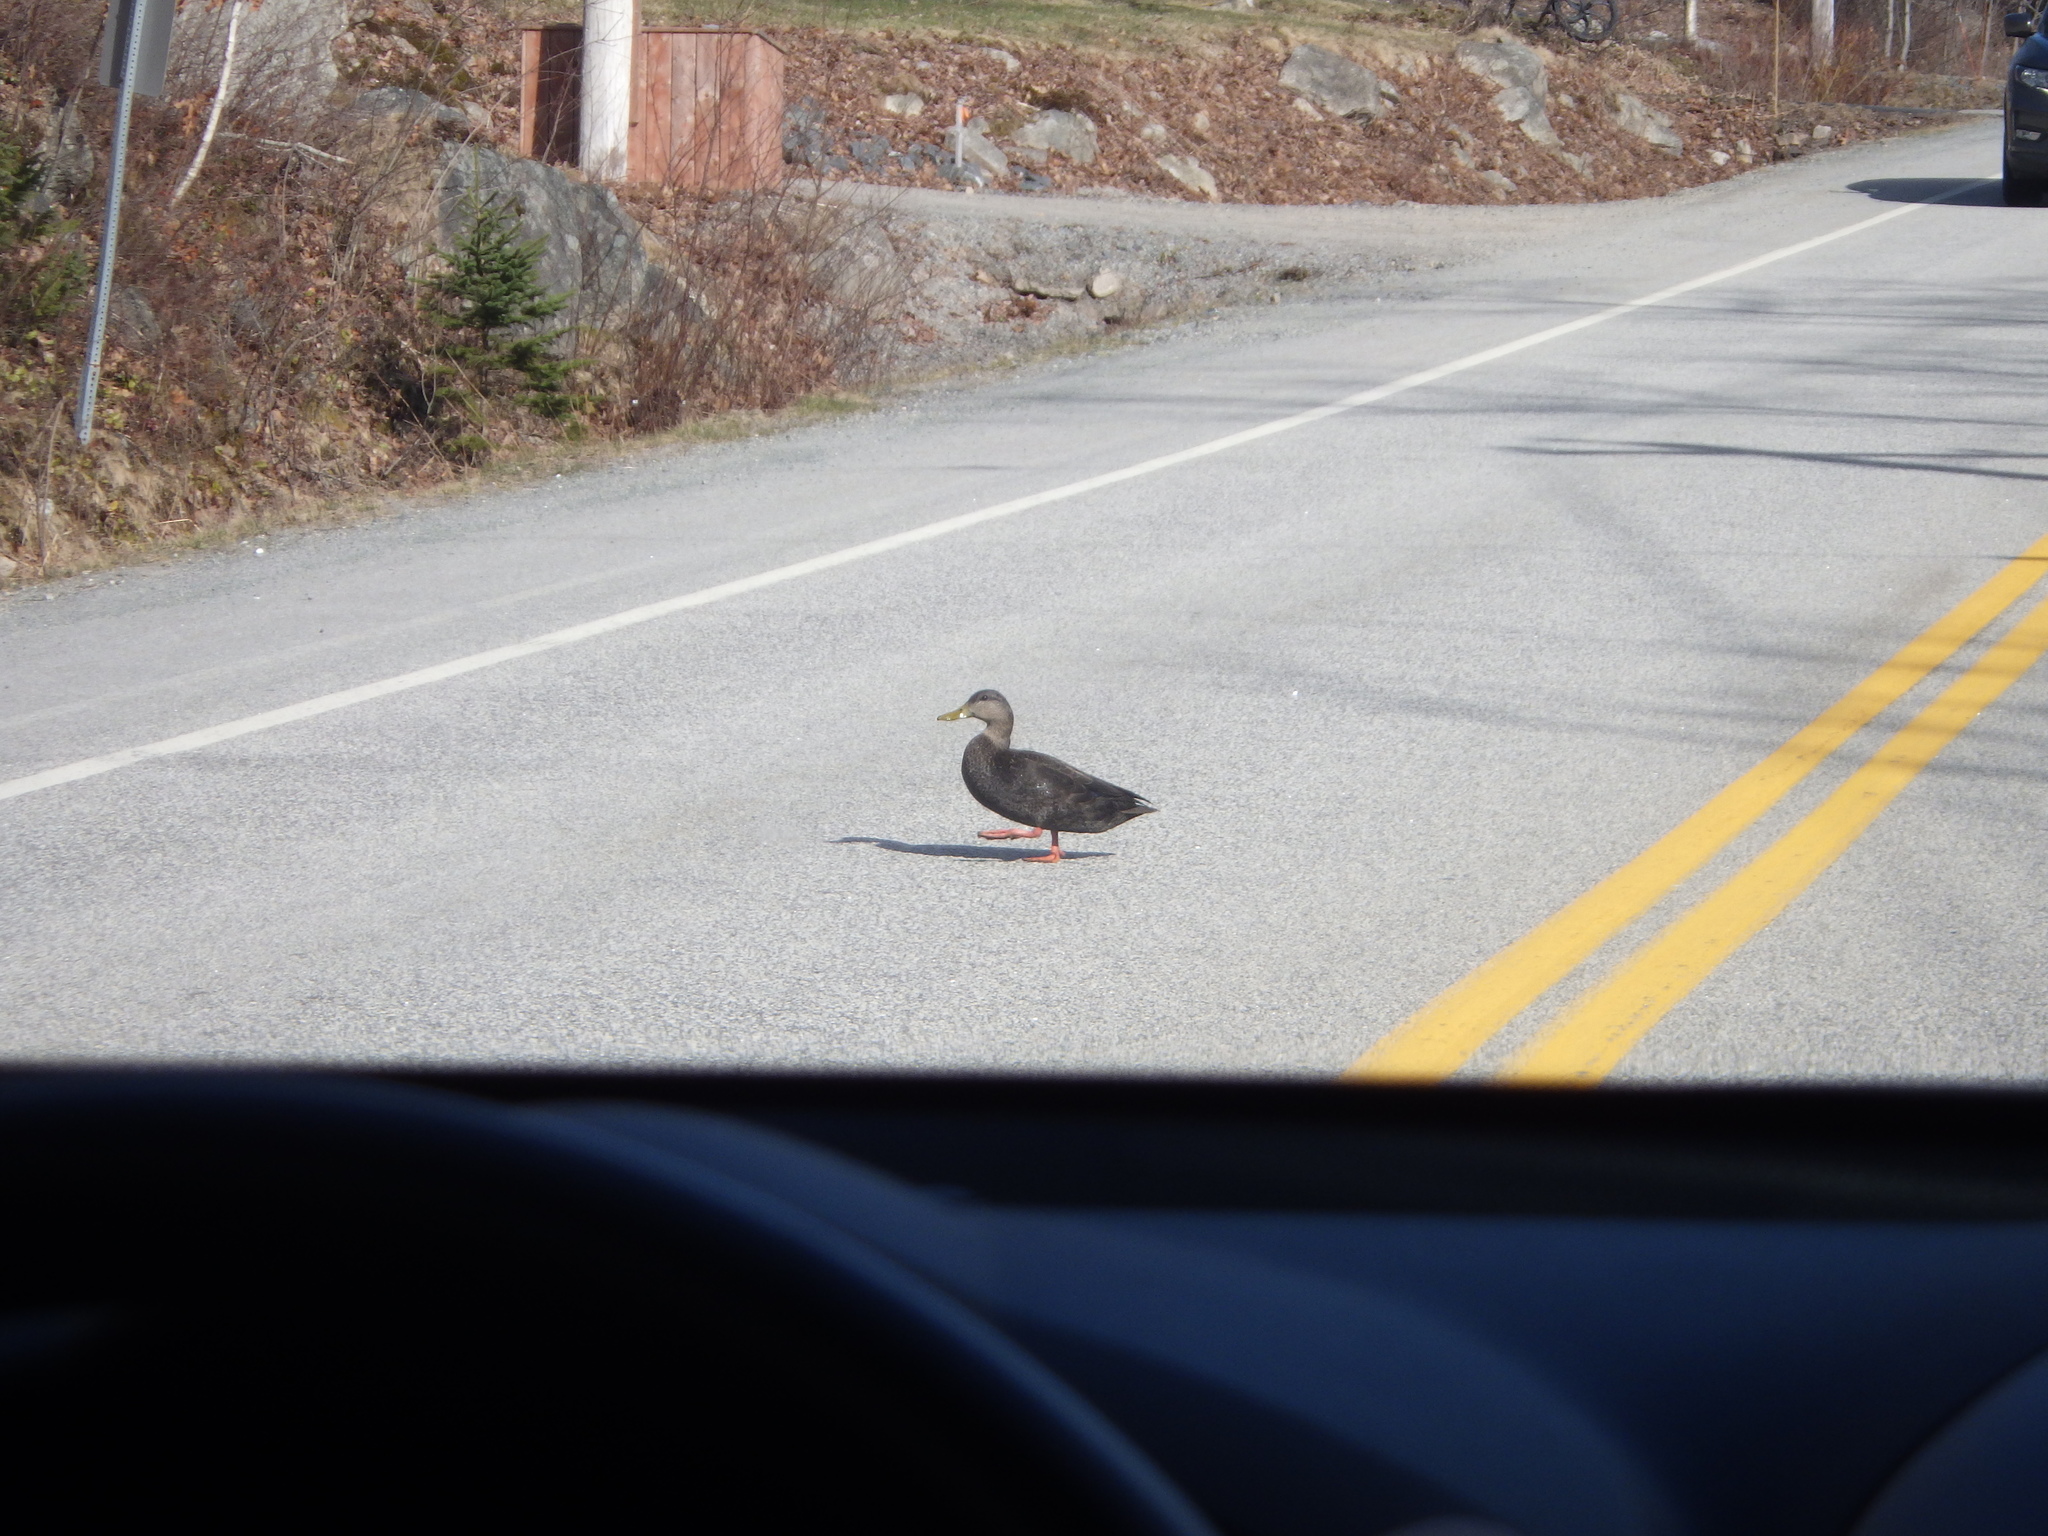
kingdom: Animalia
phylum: Chordata
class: Aves
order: Anseriformes
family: Anatidae
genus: Anas
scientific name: Anas rubripes
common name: American black duck
